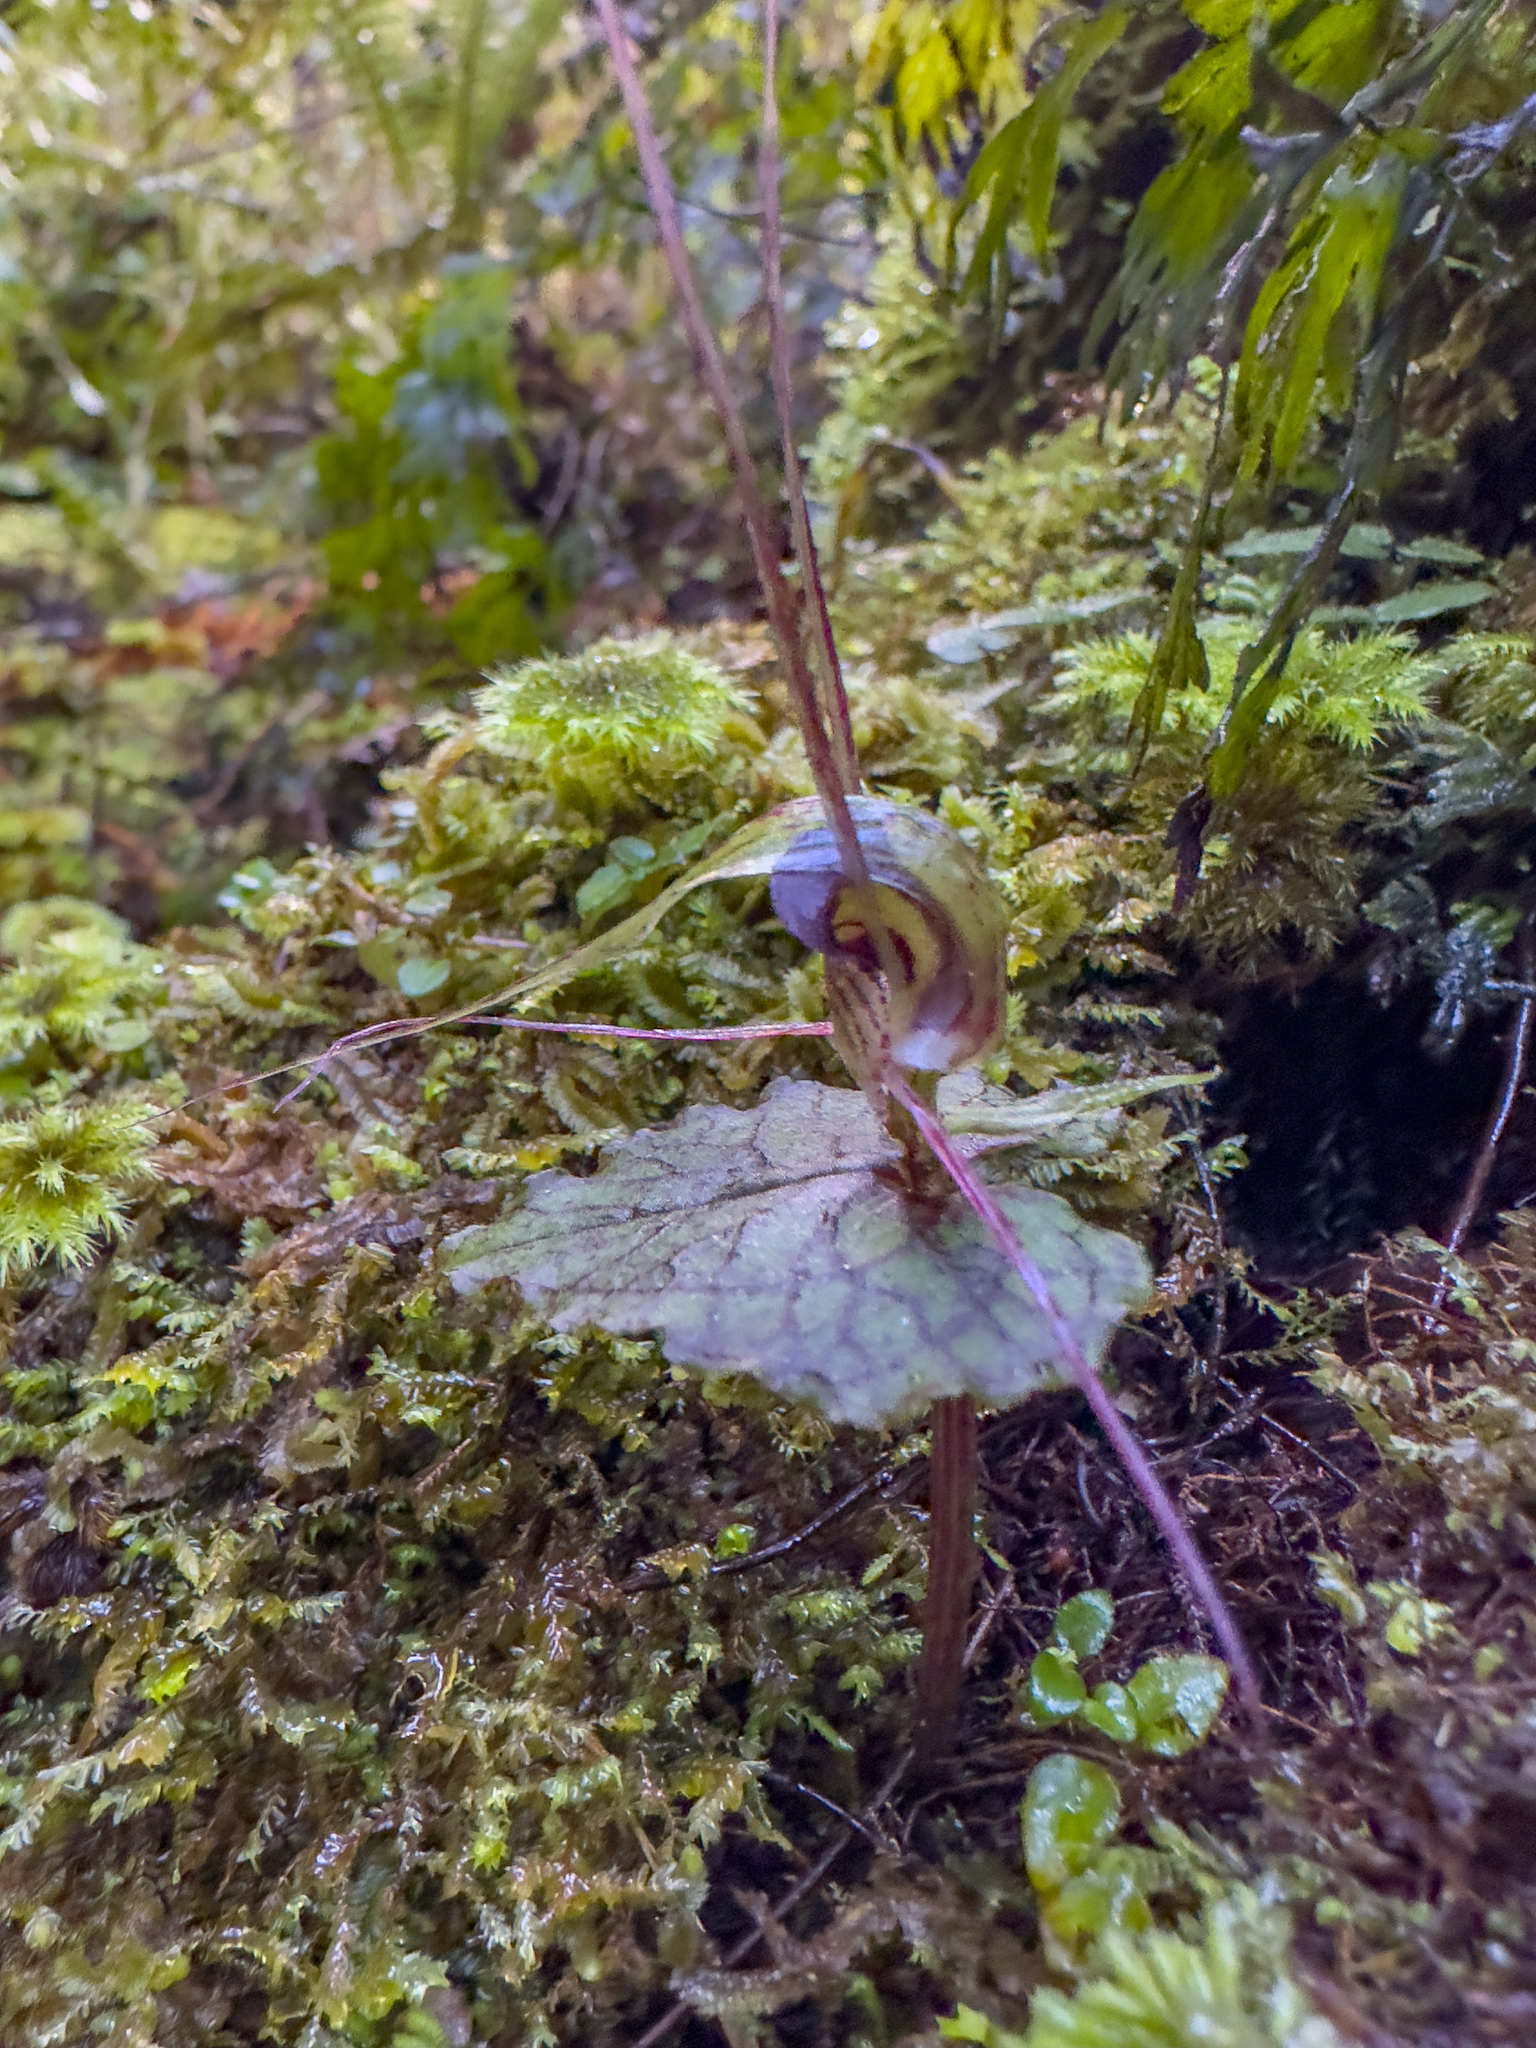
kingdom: Plantae
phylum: Tracheophyta
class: Liliopsida
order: Asparagales
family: Orchidaceae
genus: Corybas
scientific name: Corybas acuminatus
